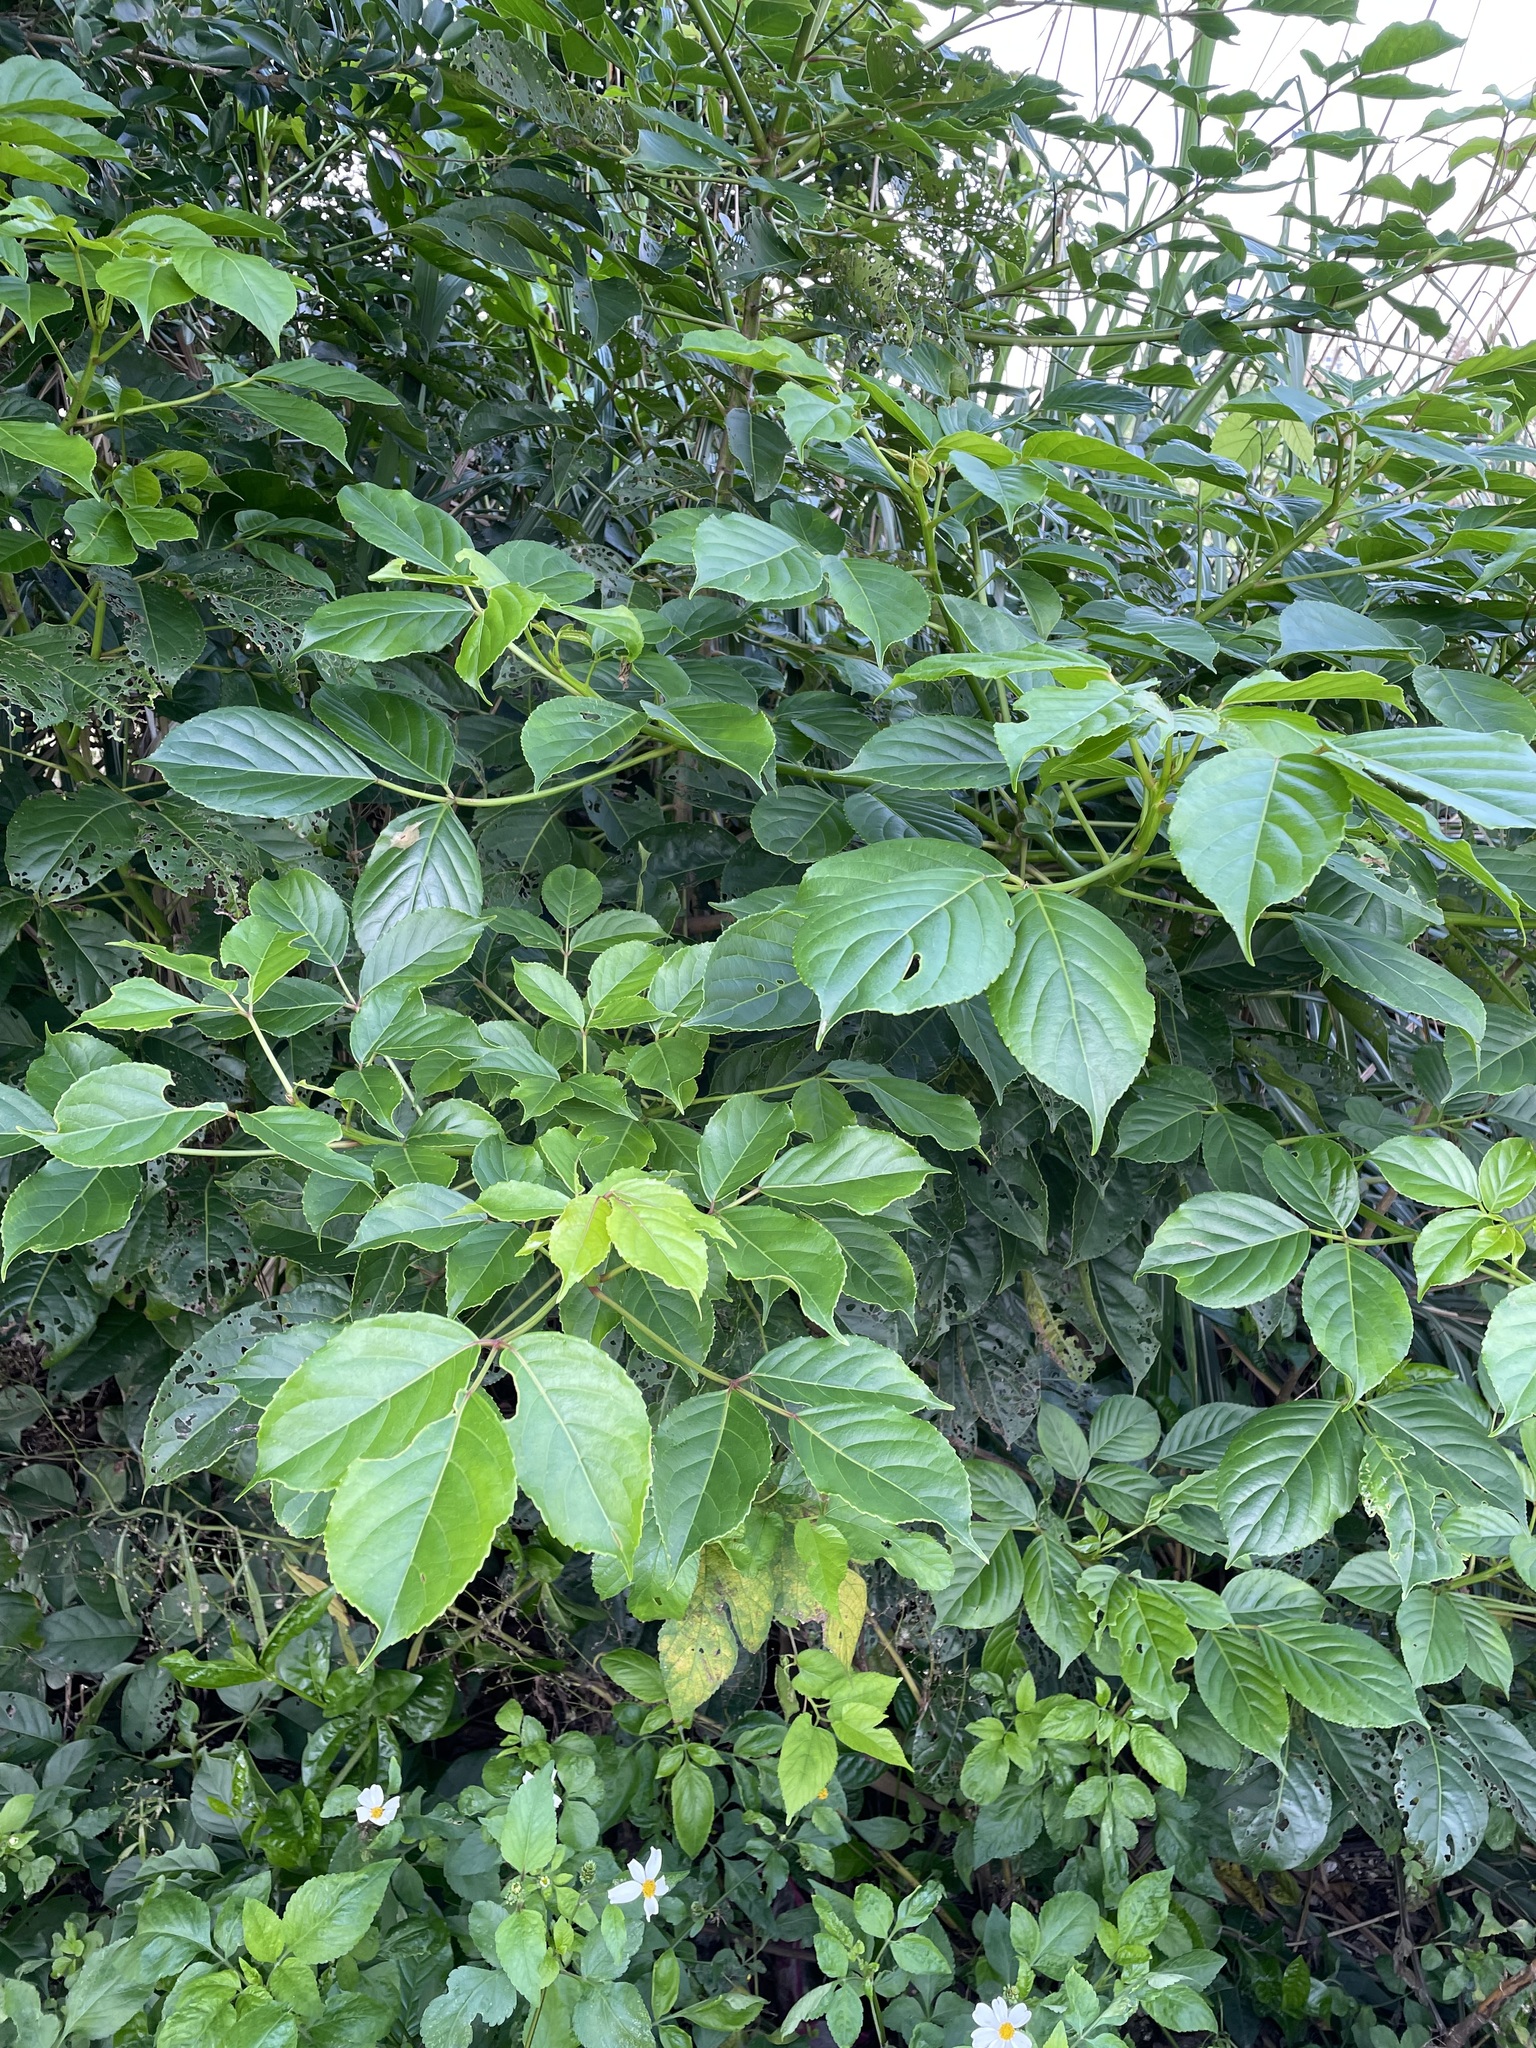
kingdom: Plantae
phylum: Tracheophyta
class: Magnoliopsida
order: Malpighiales
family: Phyllanthaceae
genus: Bischofia
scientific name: Bischofia javanica
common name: Javanese bishopwood
